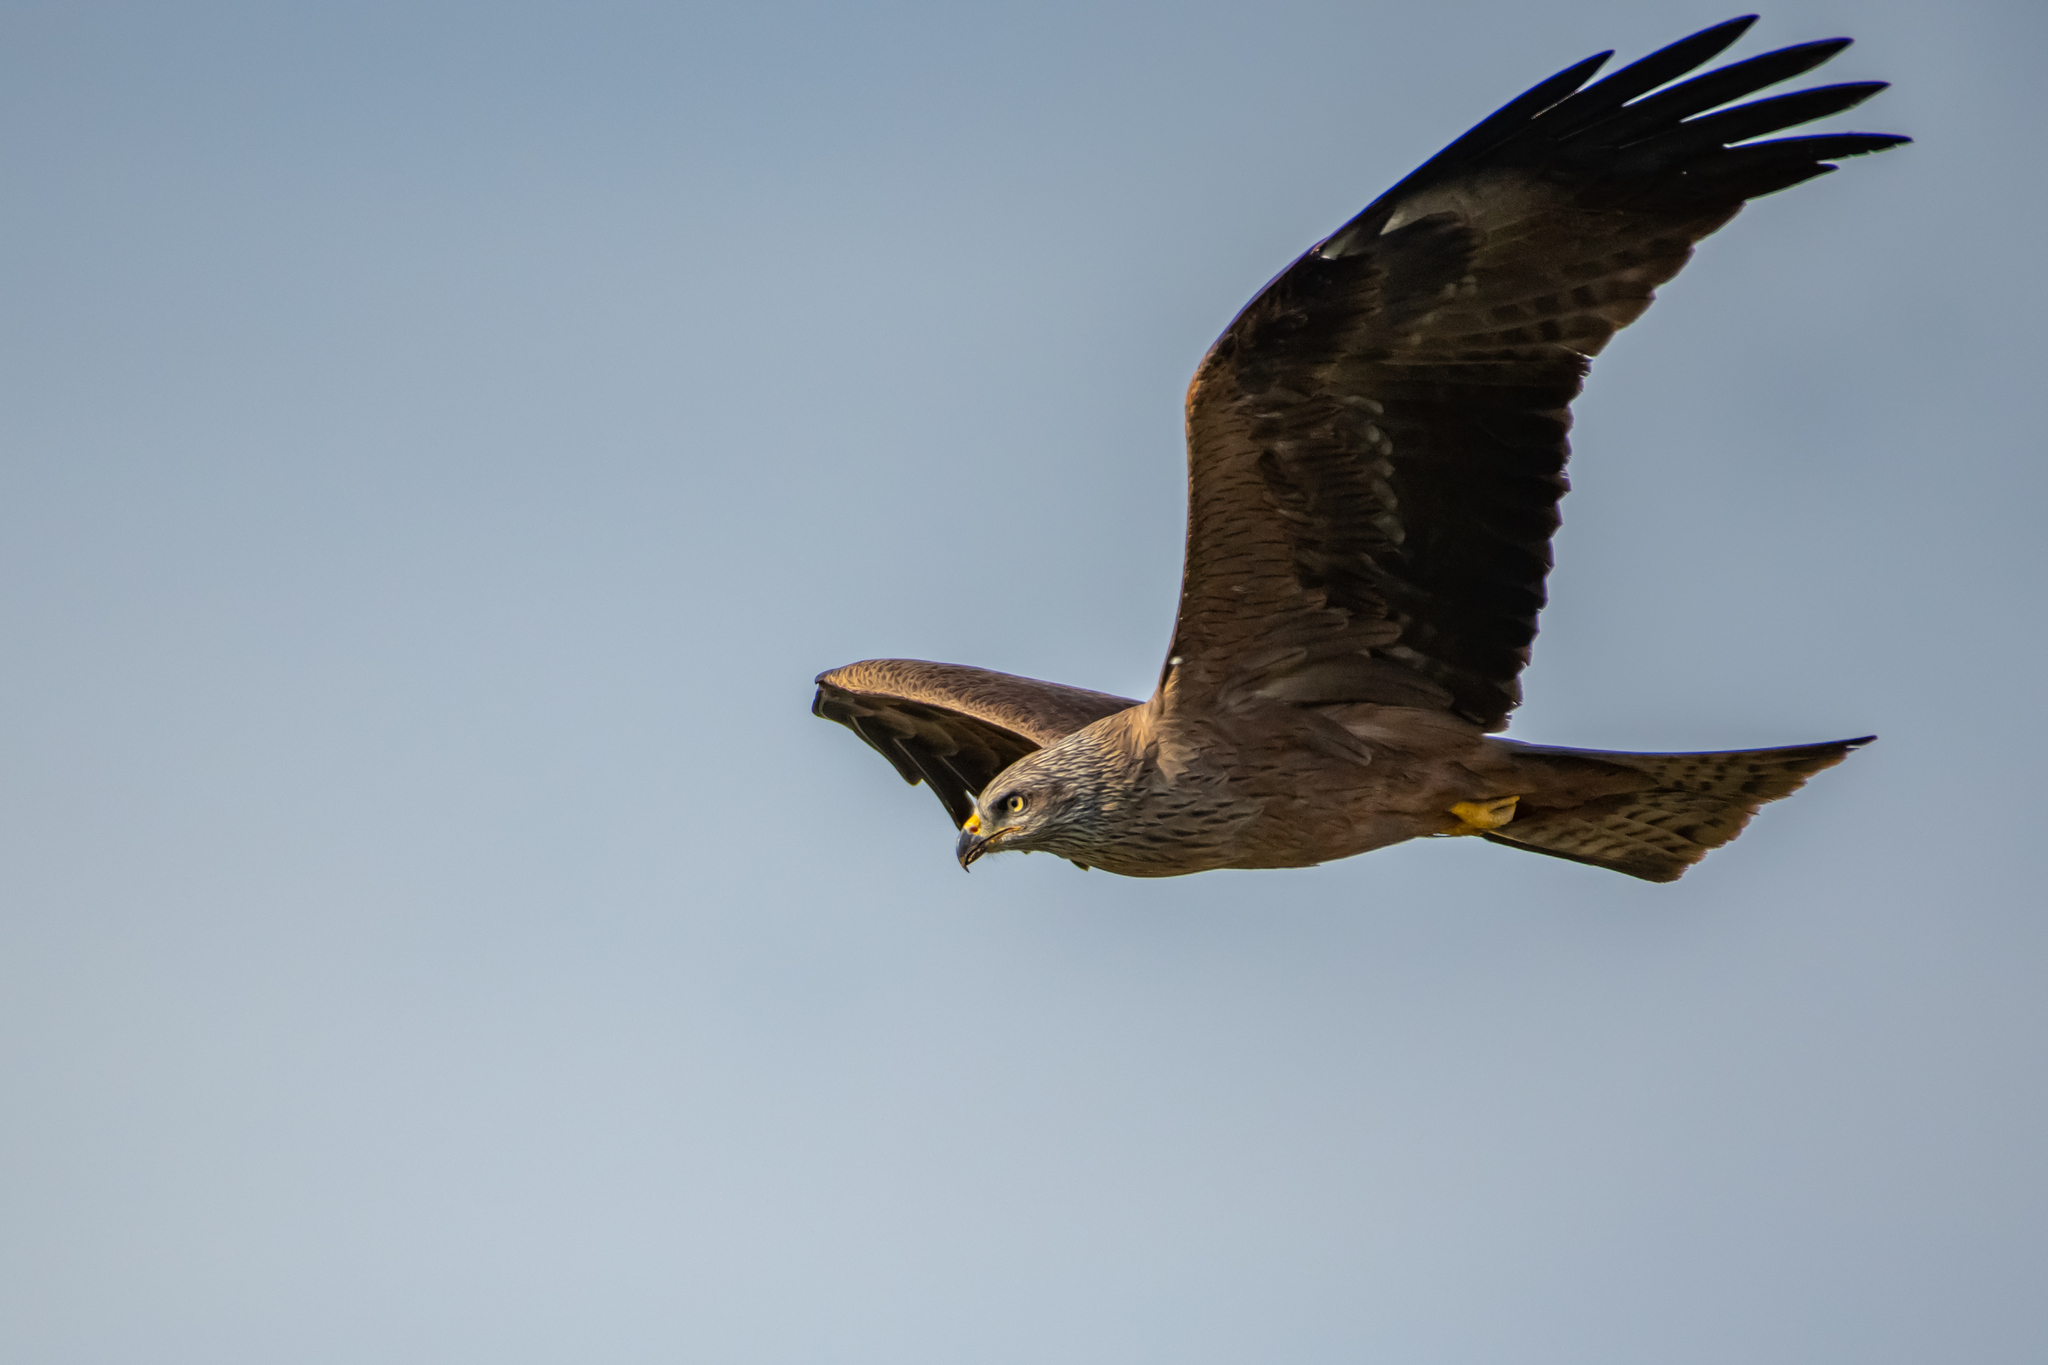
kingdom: Animalia
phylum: Chordata
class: Aves
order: Accipitriformes
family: Accipitridae
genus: Milvus
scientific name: Milvus migrans
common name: Black kite
